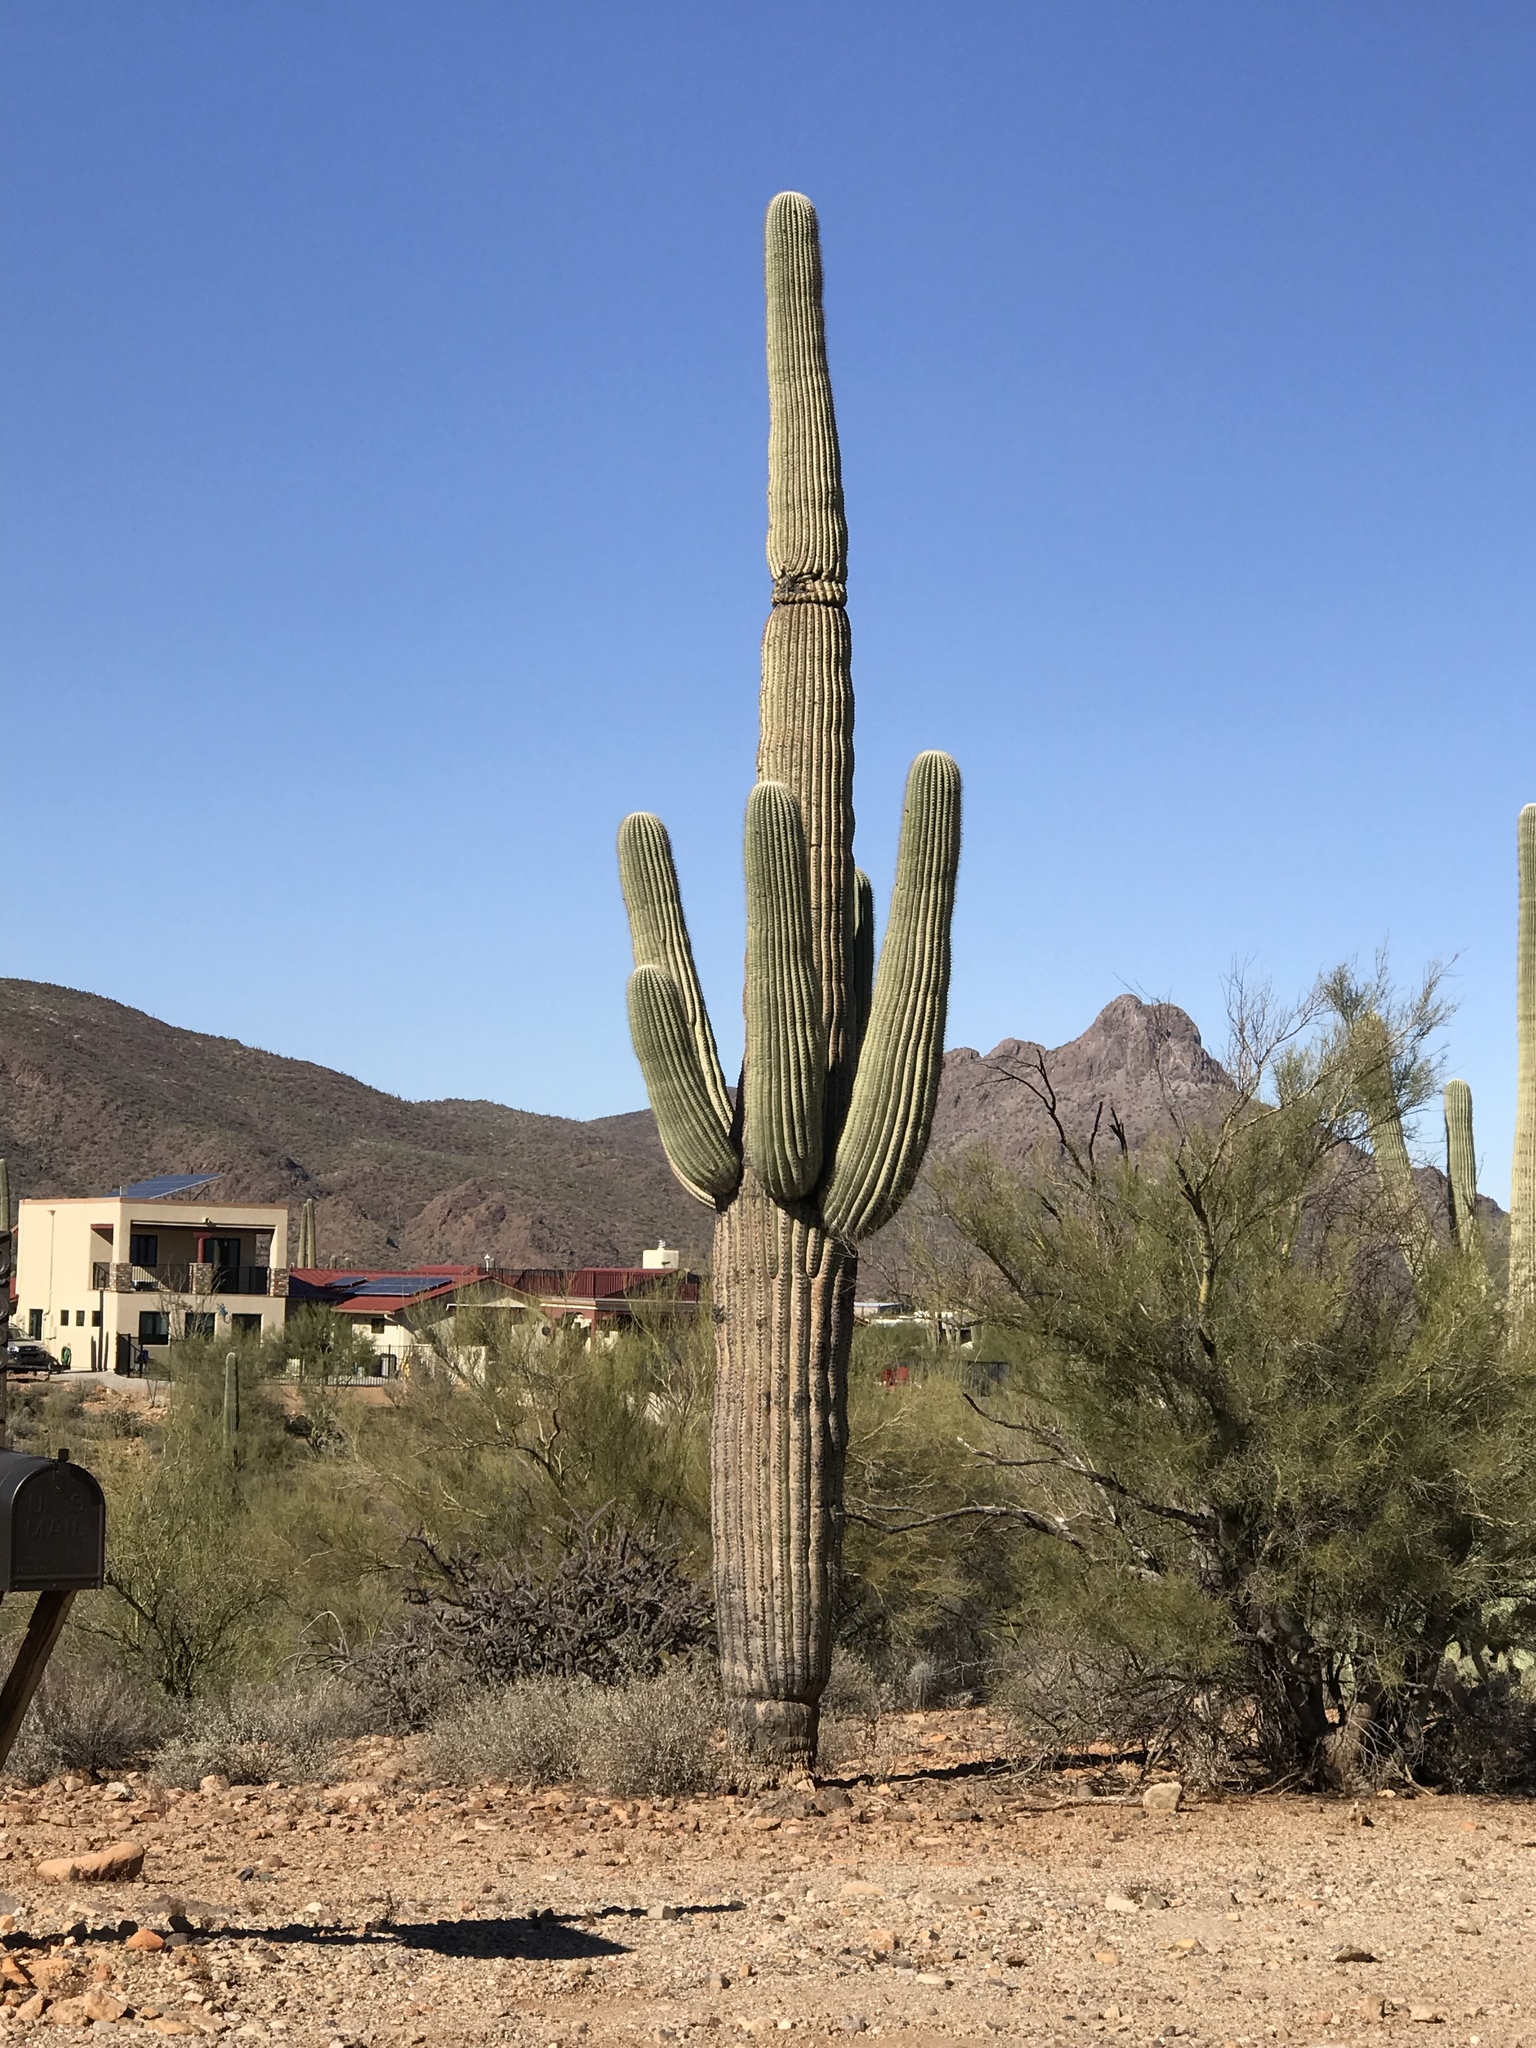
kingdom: Plantae
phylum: Tracheophyta
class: Magnoliopsida
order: Caryophyllales
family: Cactaceae
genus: Carnegiea
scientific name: Carnegiea gigantea
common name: Saguaro
